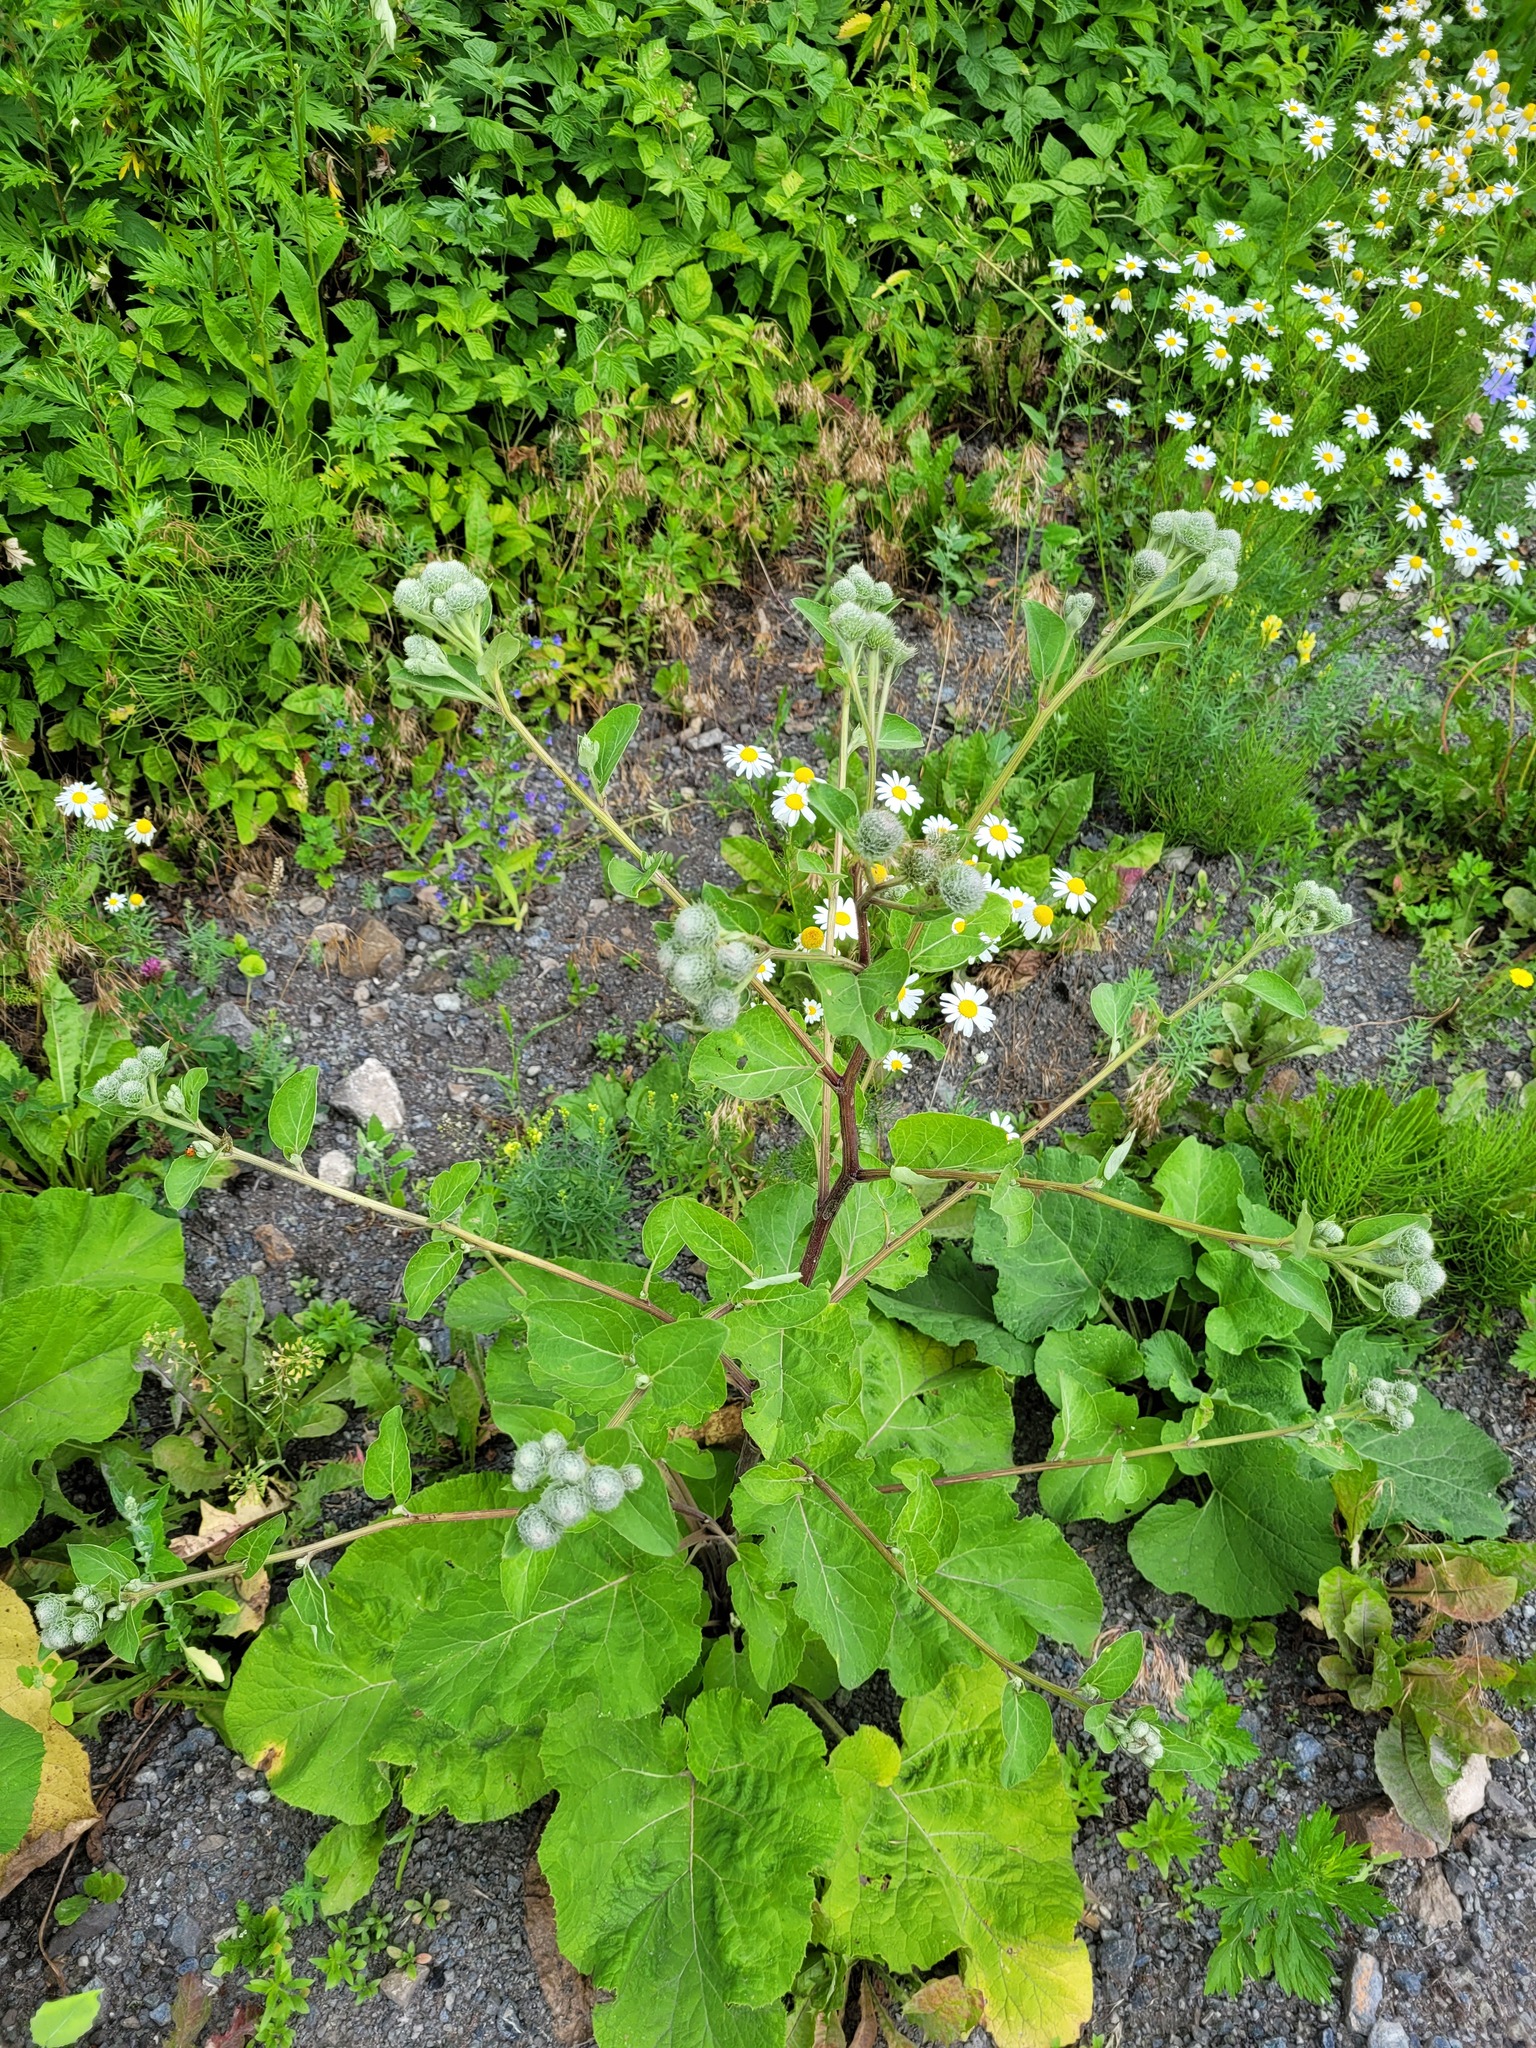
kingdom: Plantae
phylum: Tracheophyta
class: Magnoliopsida
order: Asterales
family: Asteraceae
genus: Arctium
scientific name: Arctium tomentosum
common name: Woolly burdock
